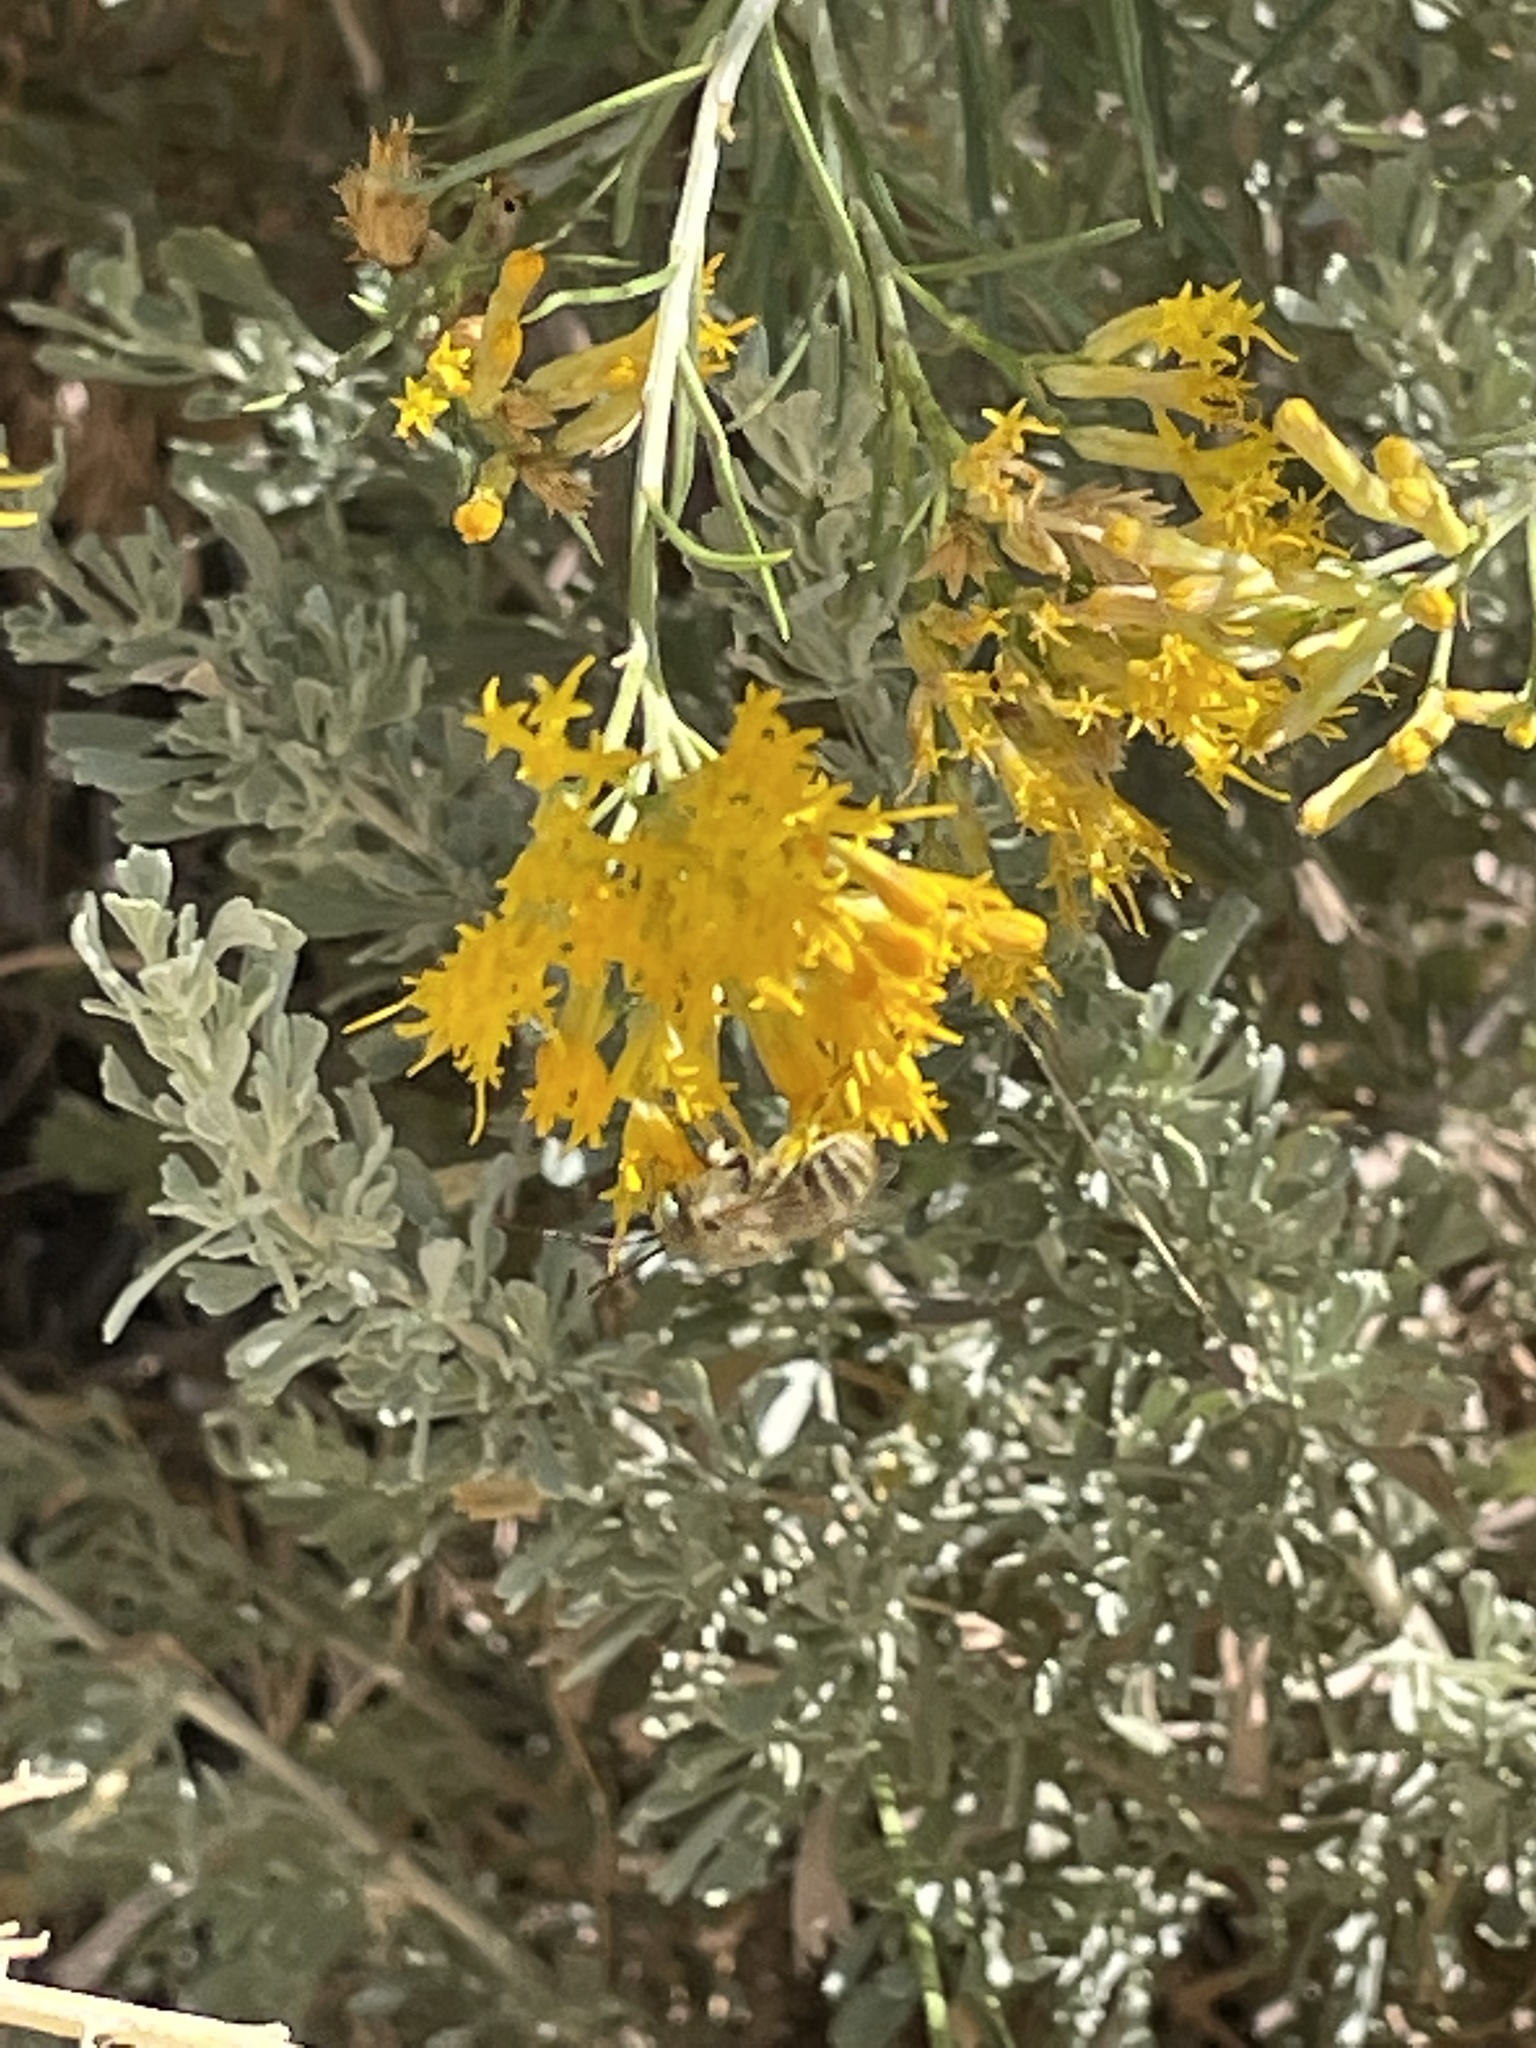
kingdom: Animalia
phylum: Arthropoda
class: Insecta
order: Hymenoptera
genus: Eumelissodes
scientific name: Eumelissodes
